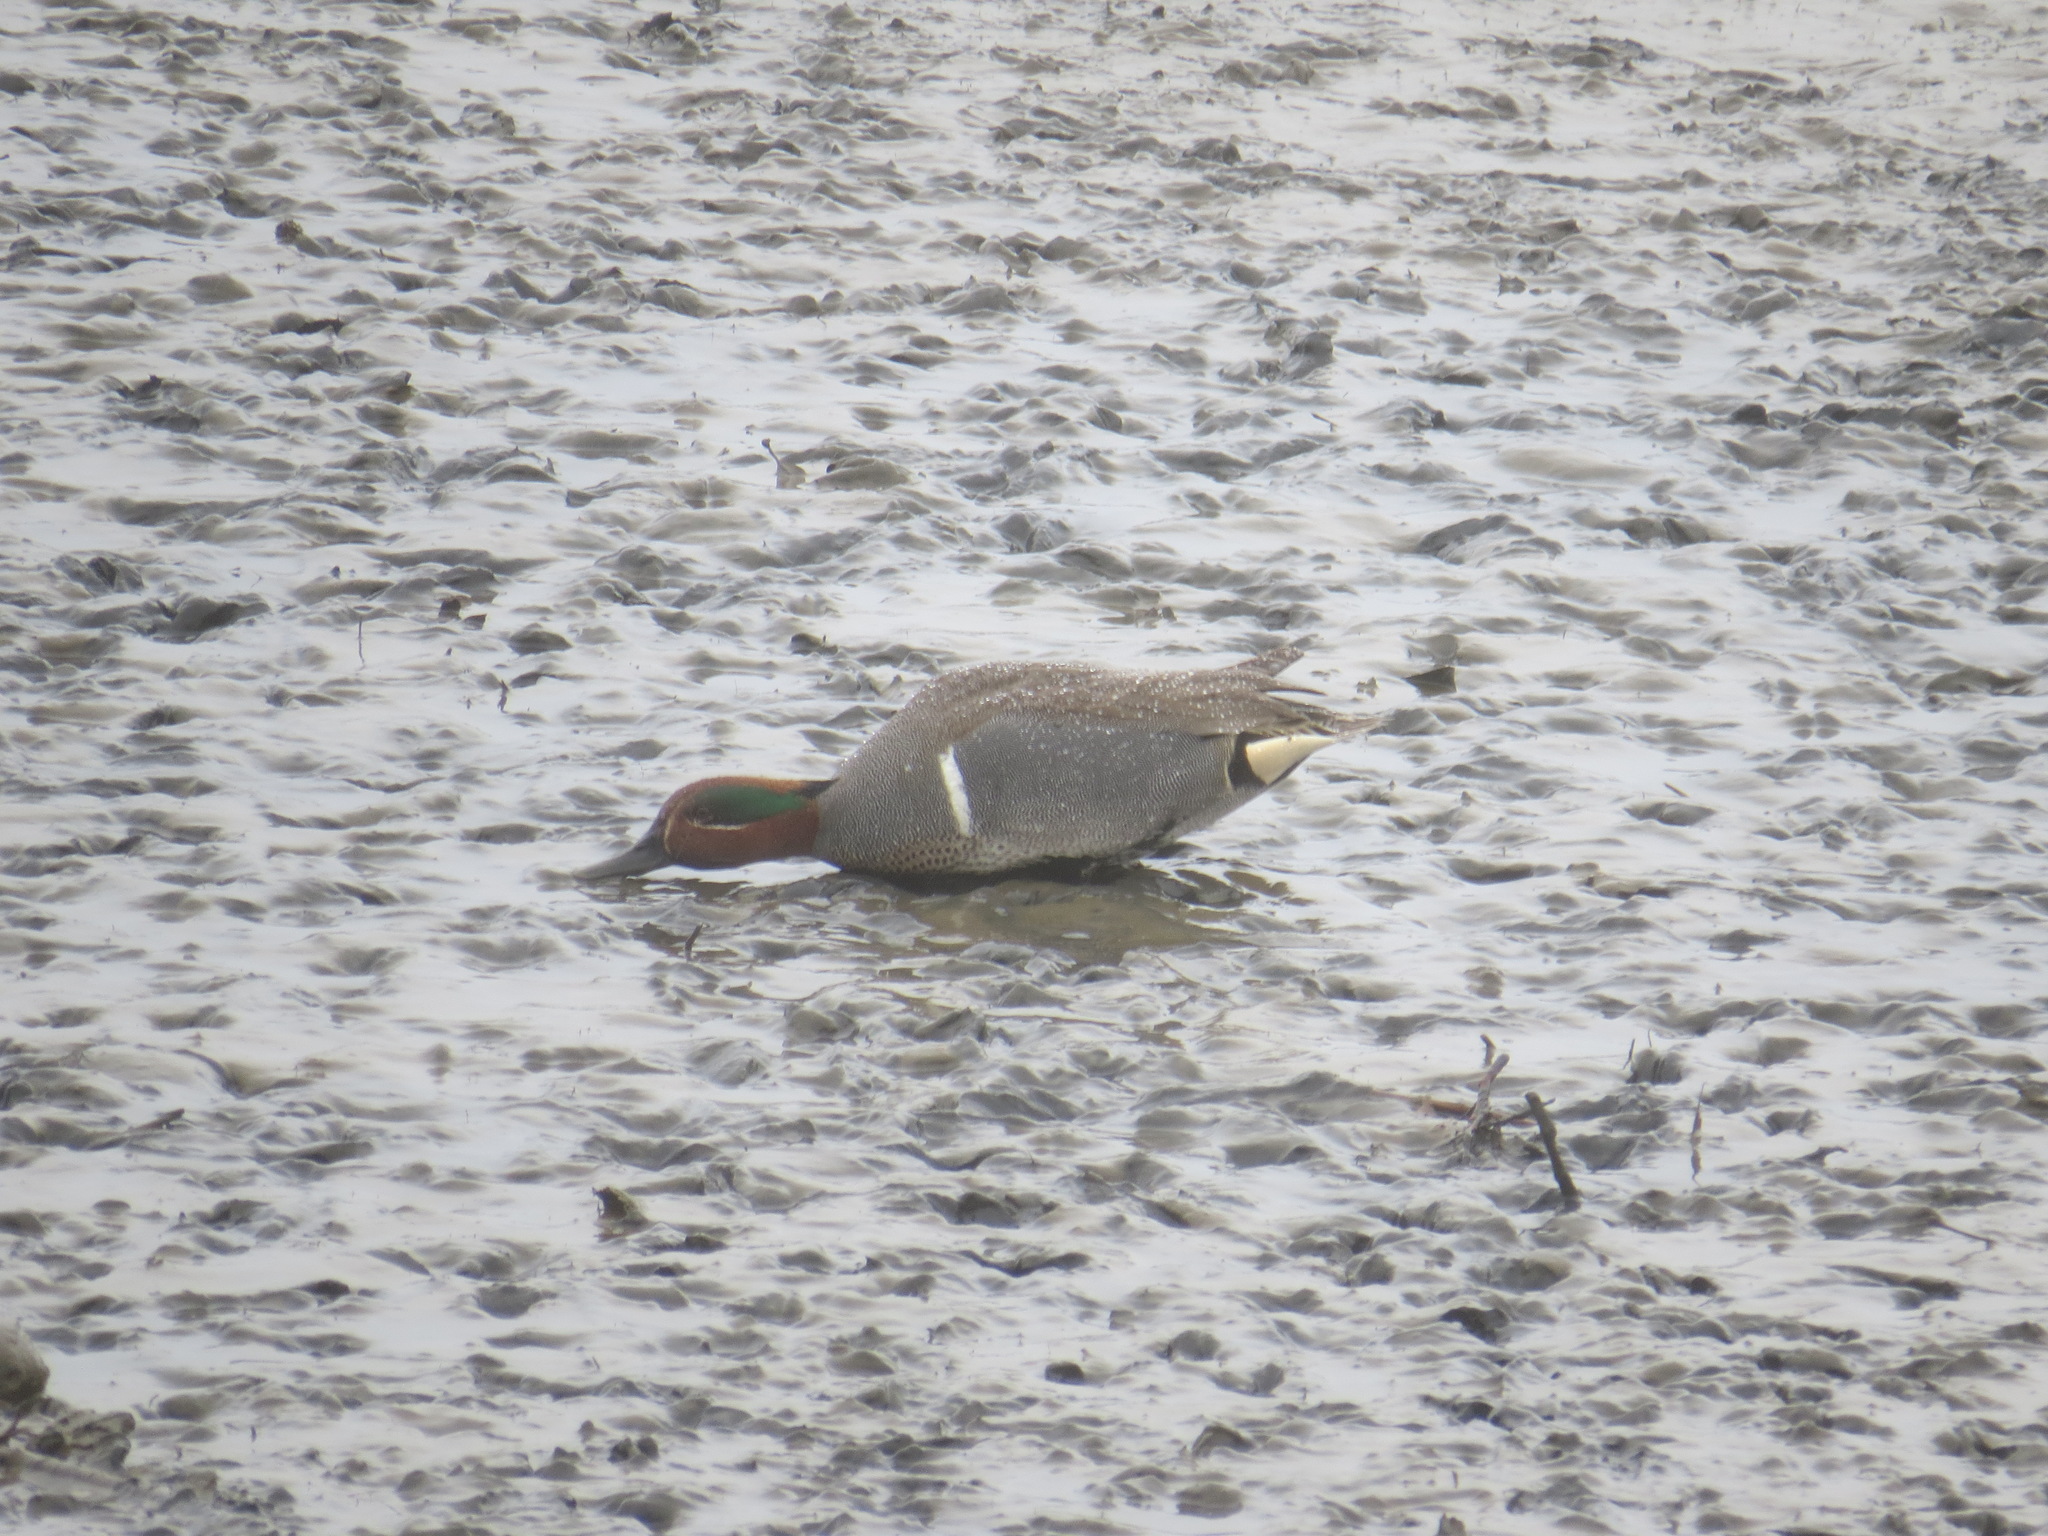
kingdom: Animalia
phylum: Chordata
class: Aves
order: Anseriformes
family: Anatidae
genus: Anas
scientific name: Anas crecca
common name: Eurasian teal
